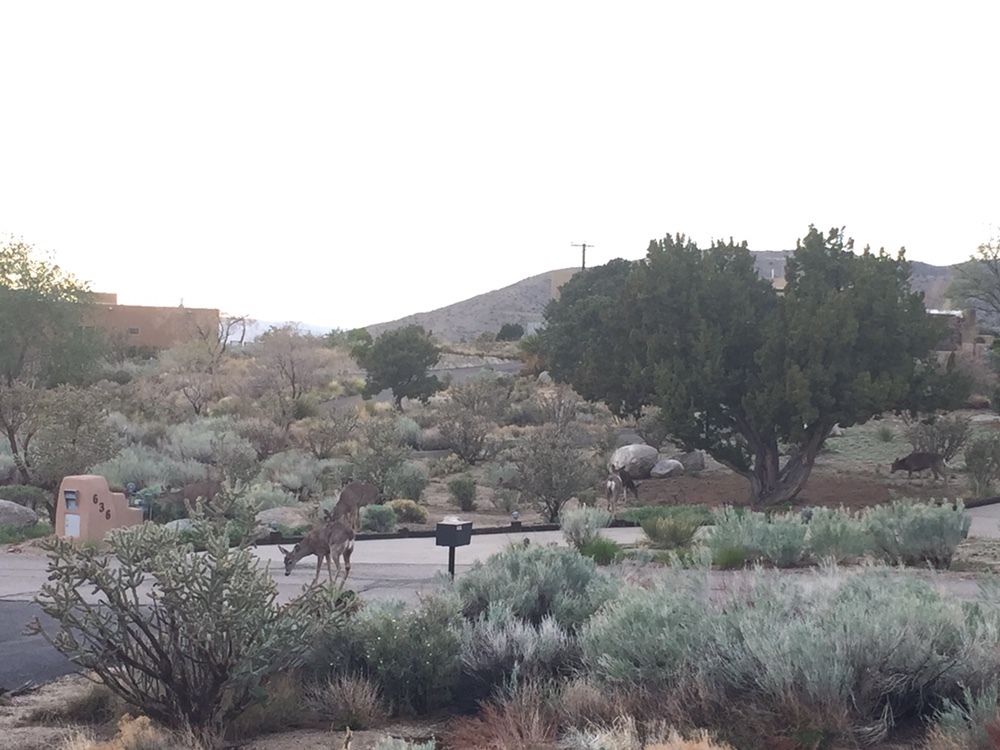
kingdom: Animalia
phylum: Chordata
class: Mammalia
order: Artiodactyla
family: Cervidae
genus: Odocoileus
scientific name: Odocoileus hemionus
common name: Mule deer
